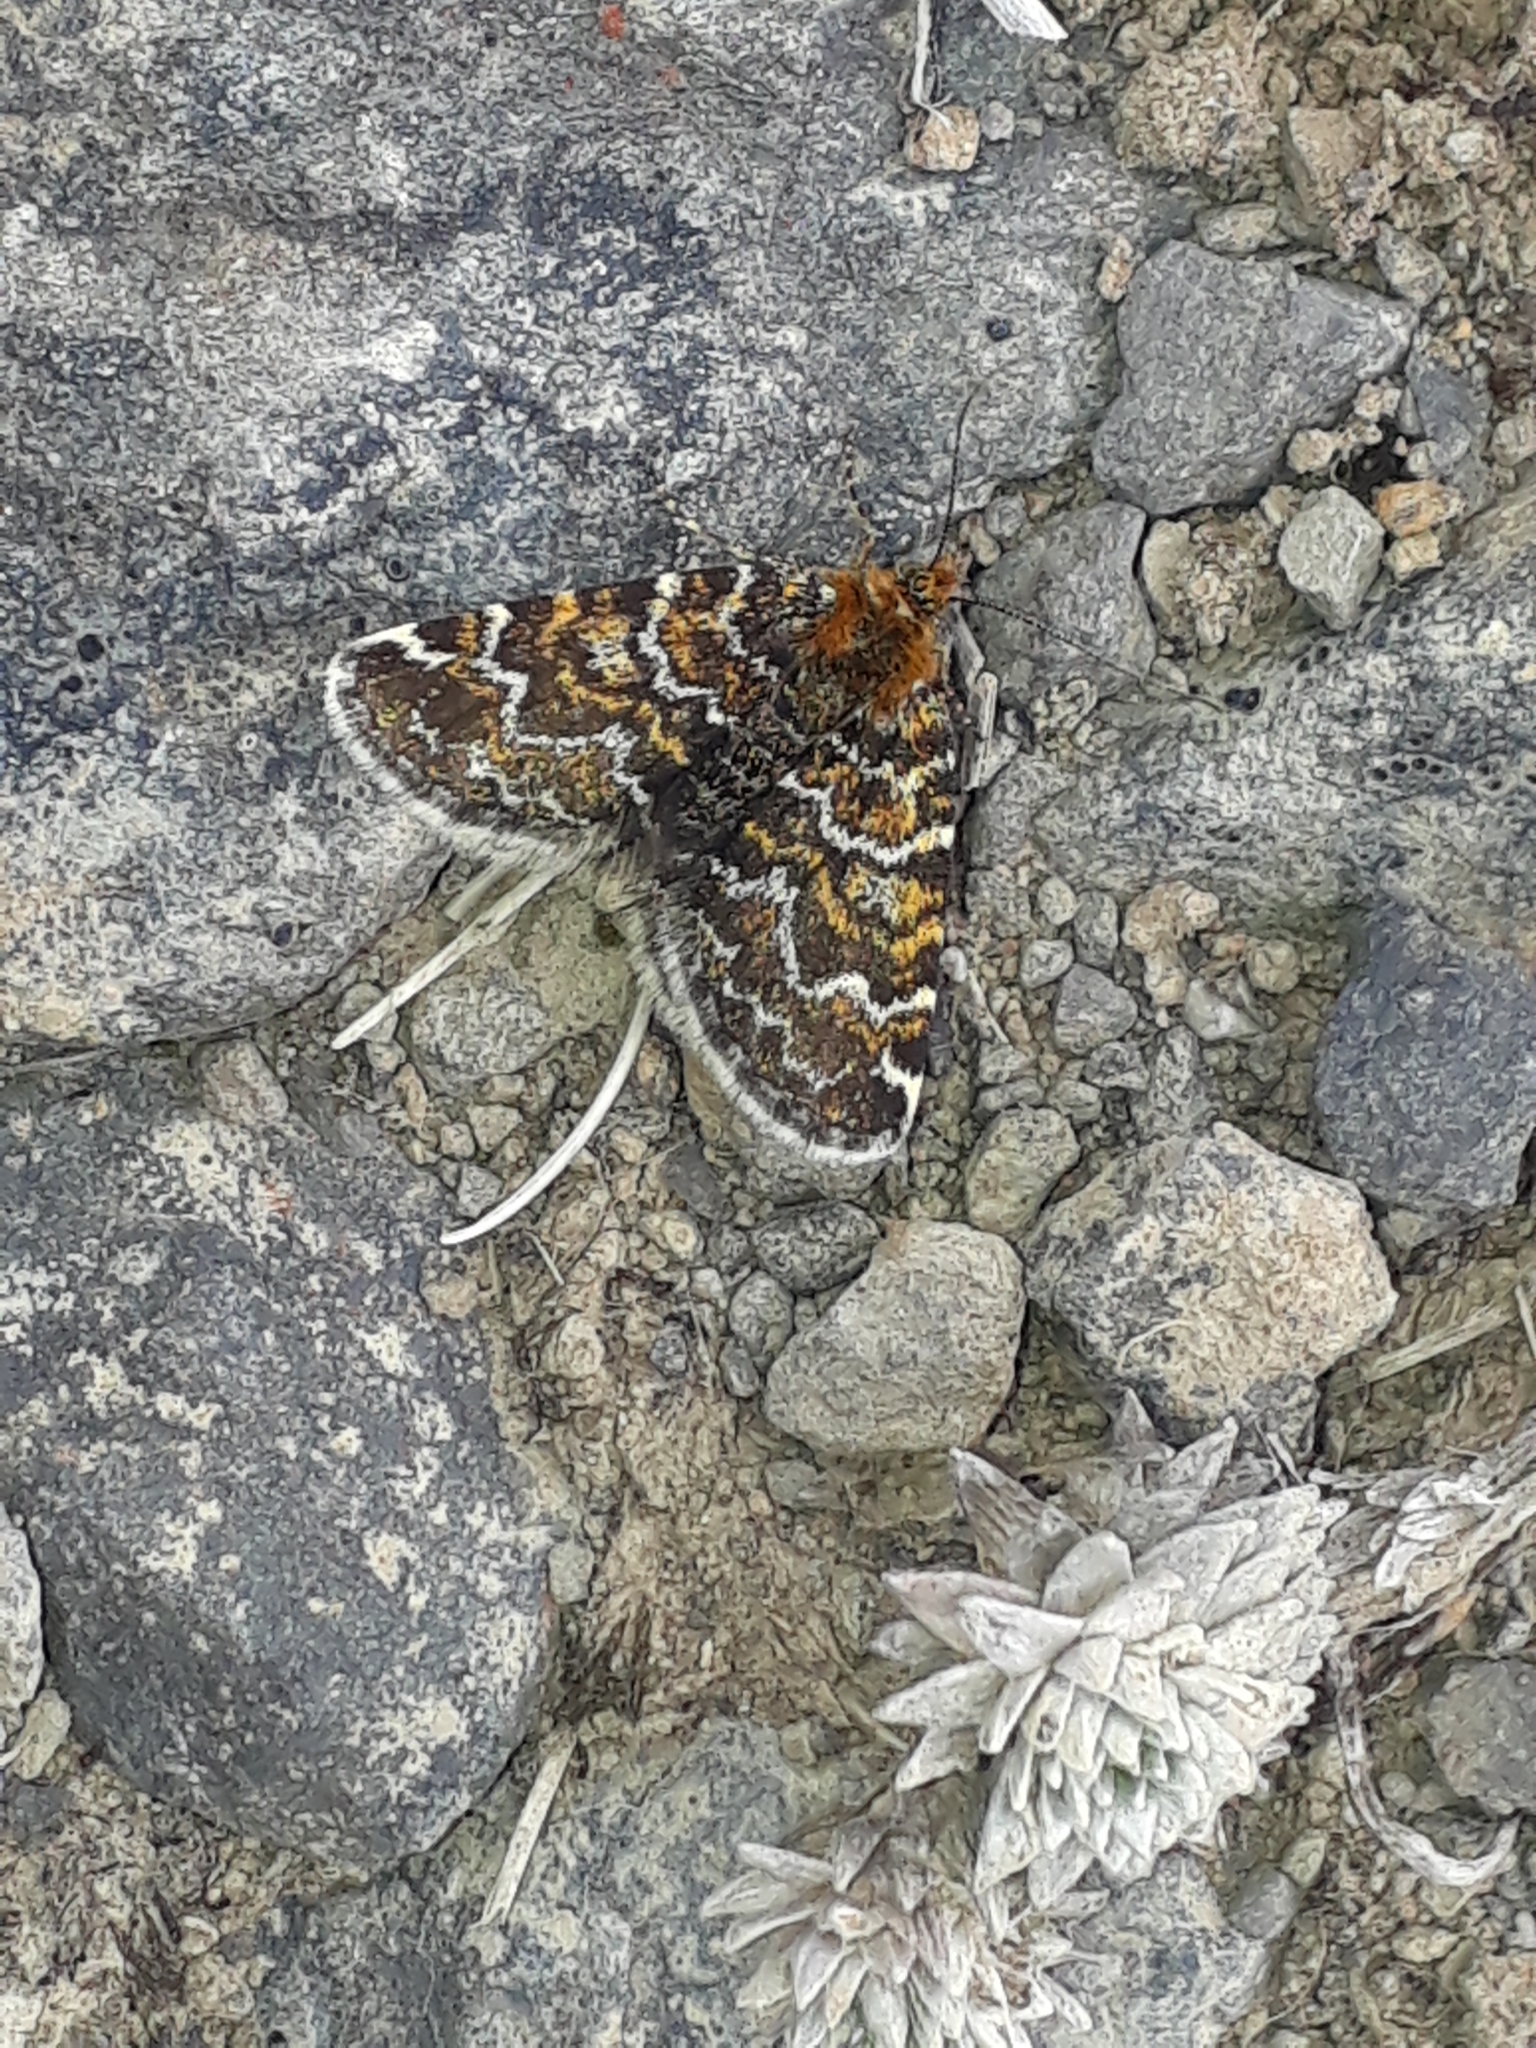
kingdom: Animalia
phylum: Arthropoda
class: Insecta
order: Lepidoptera
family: Geometridae
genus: Notoreas
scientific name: Notoreas atmogramma
